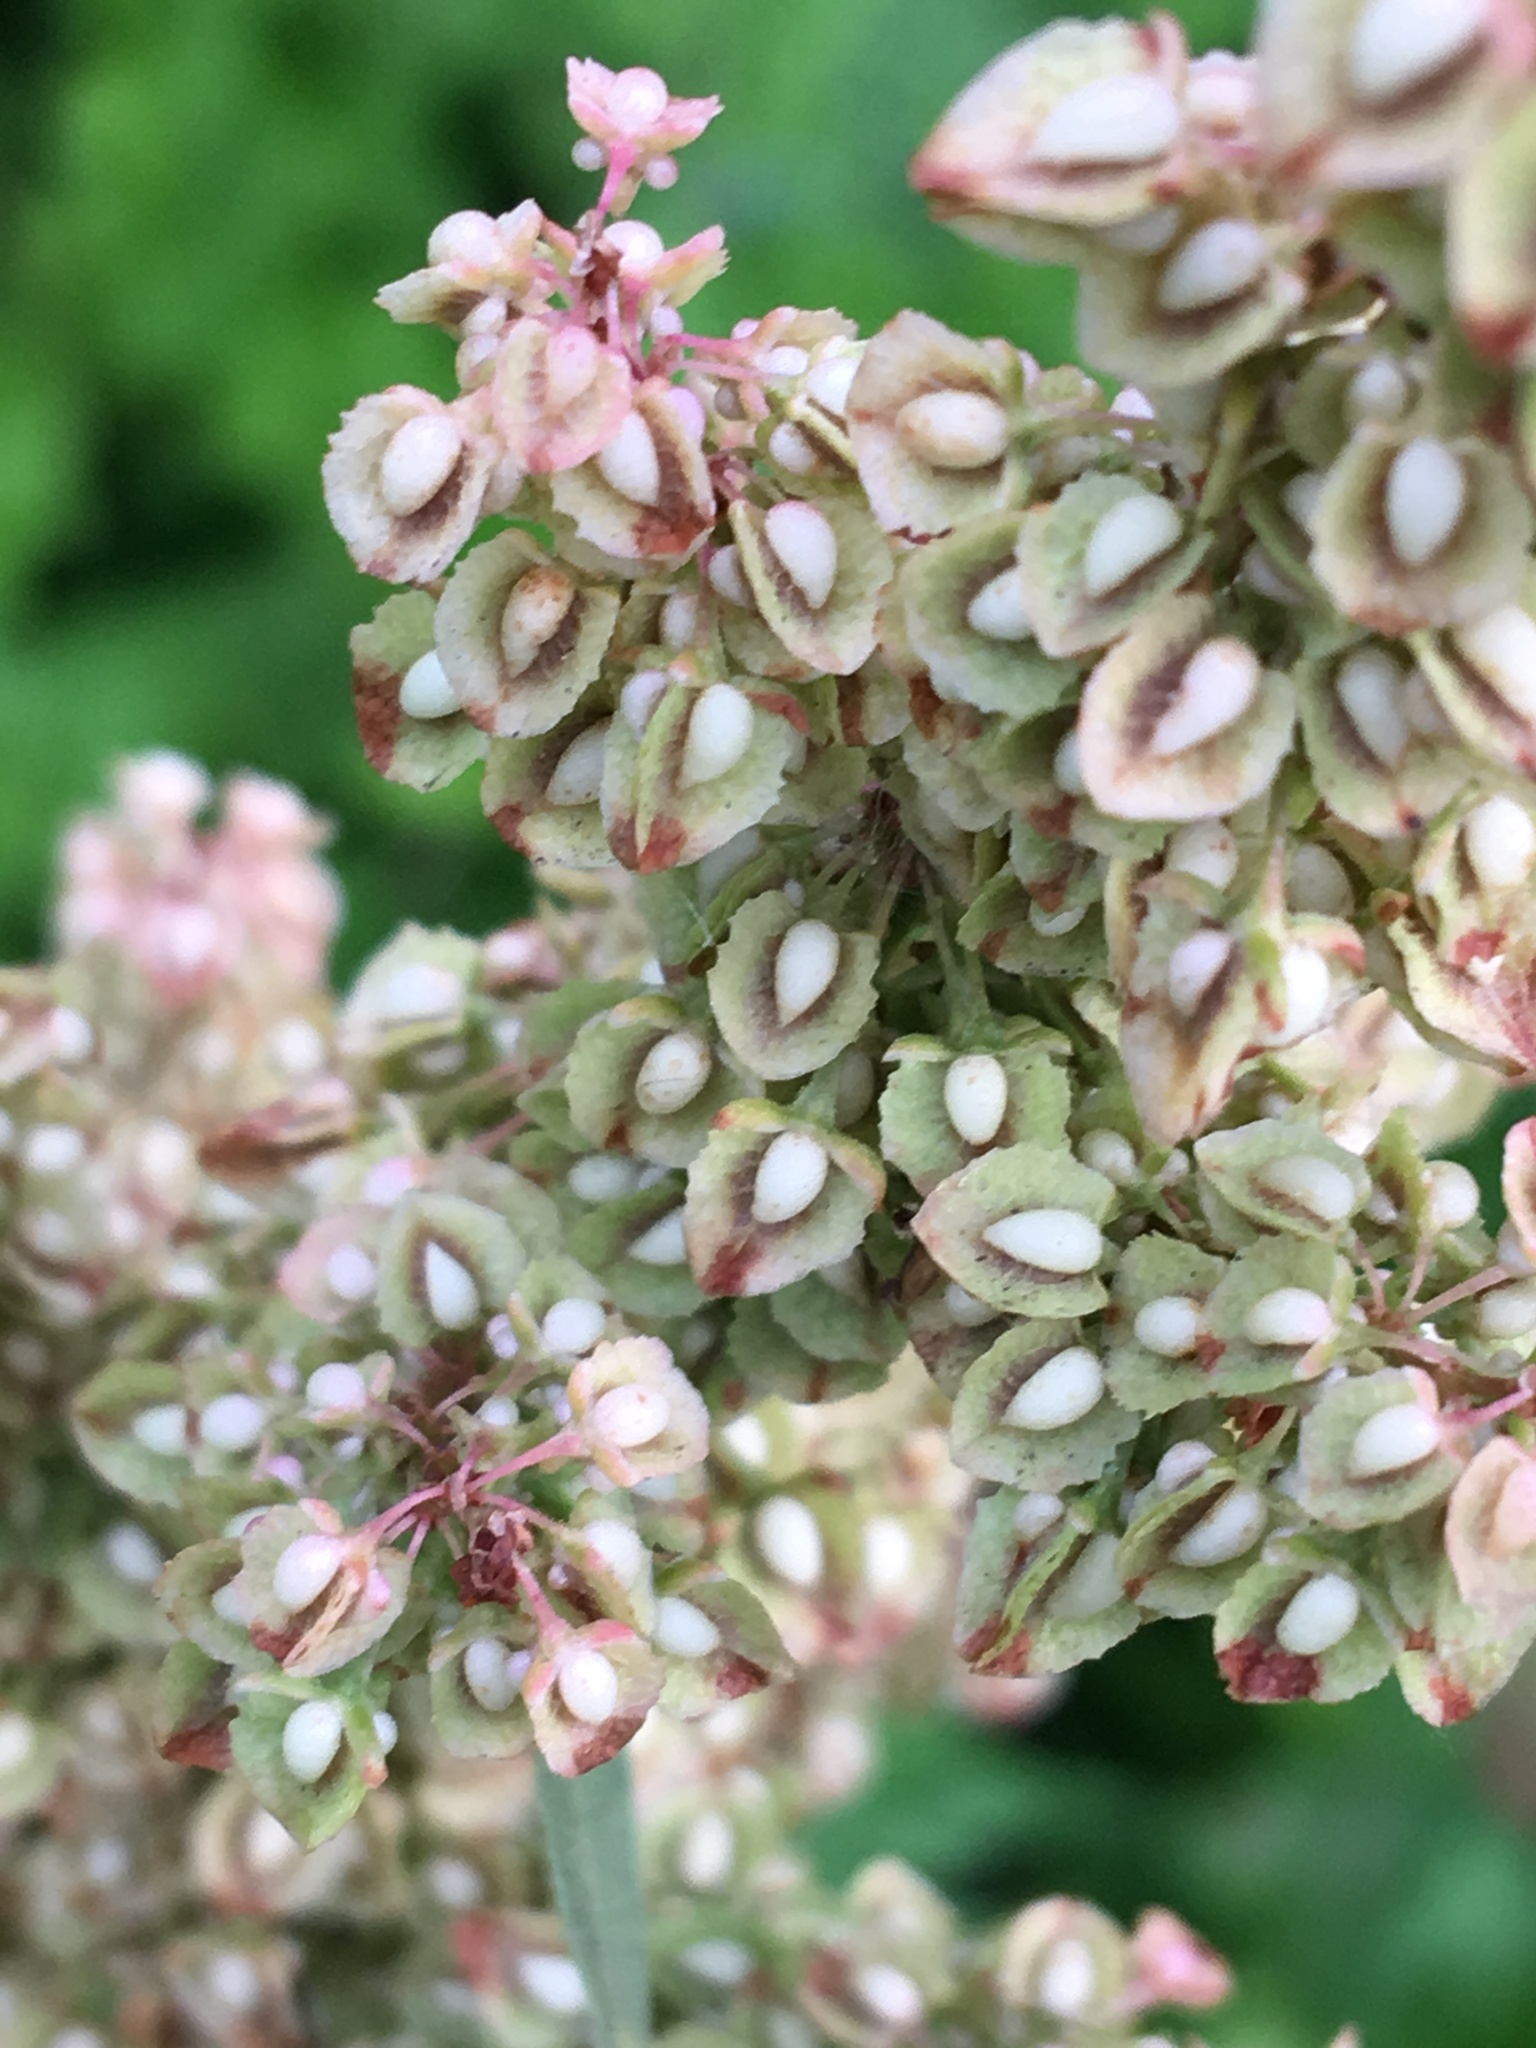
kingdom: Plantae
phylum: Tracheophyta
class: Magnoliopsida
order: Caryophyllales
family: Polygonaceae
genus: Rumex
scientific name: Rumex crispus
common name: Curled dock
